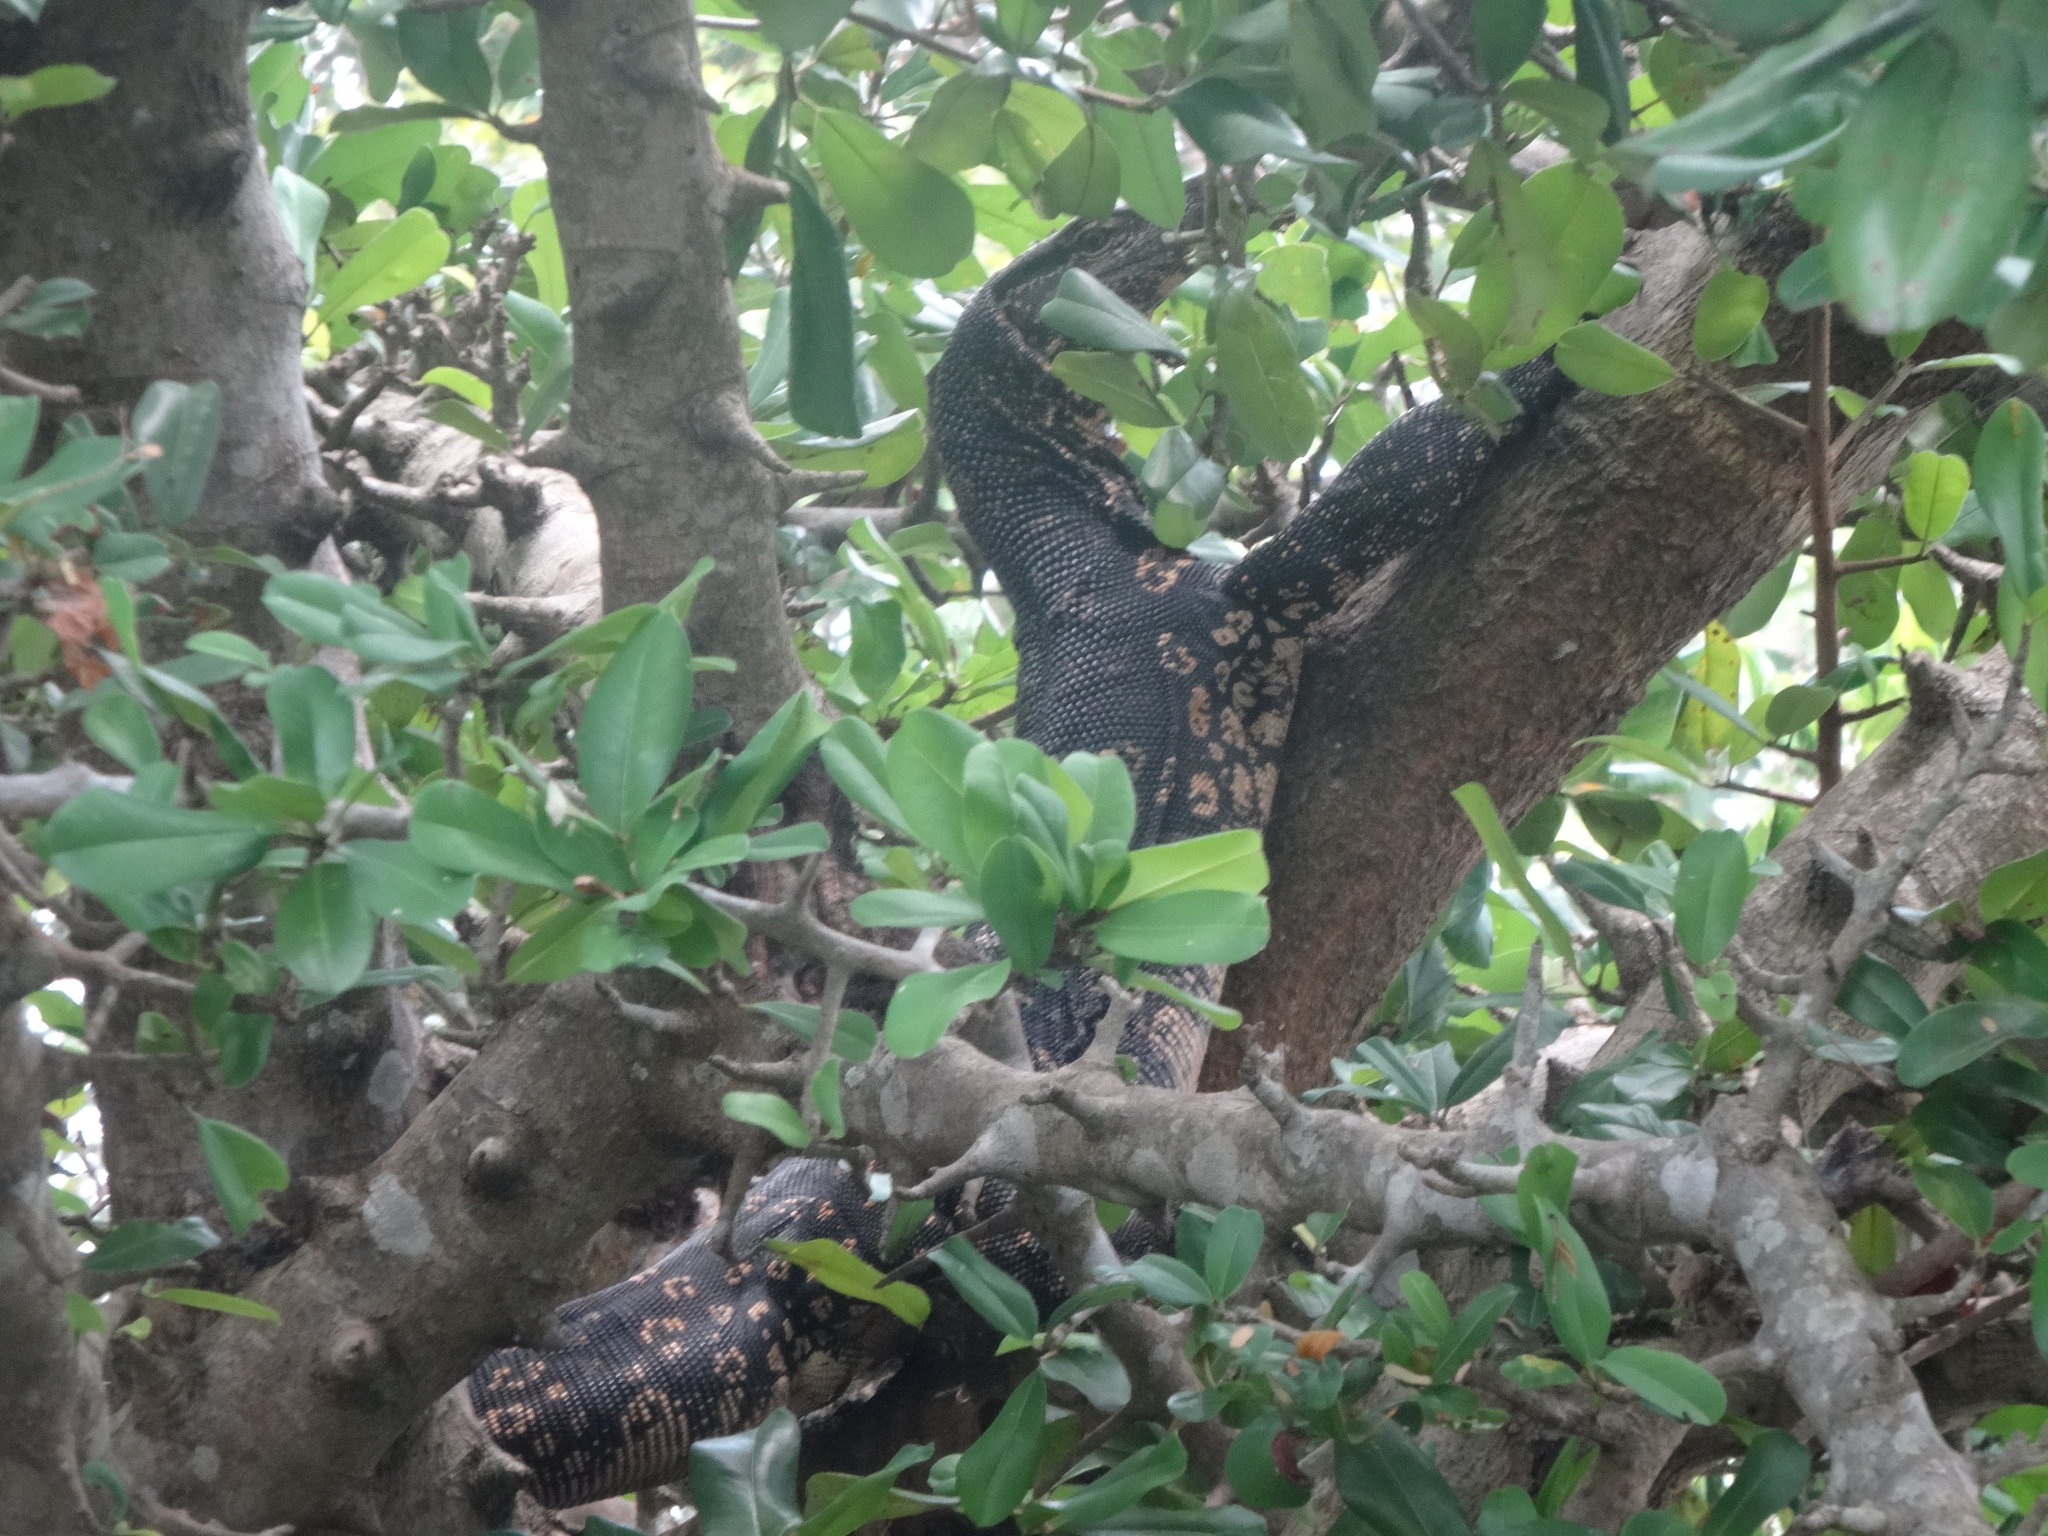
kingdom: Animalia
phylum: Chordata
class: Squamata
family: Varanidae
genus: Varanus
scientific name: Varanus salvator
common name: Common water monitor
